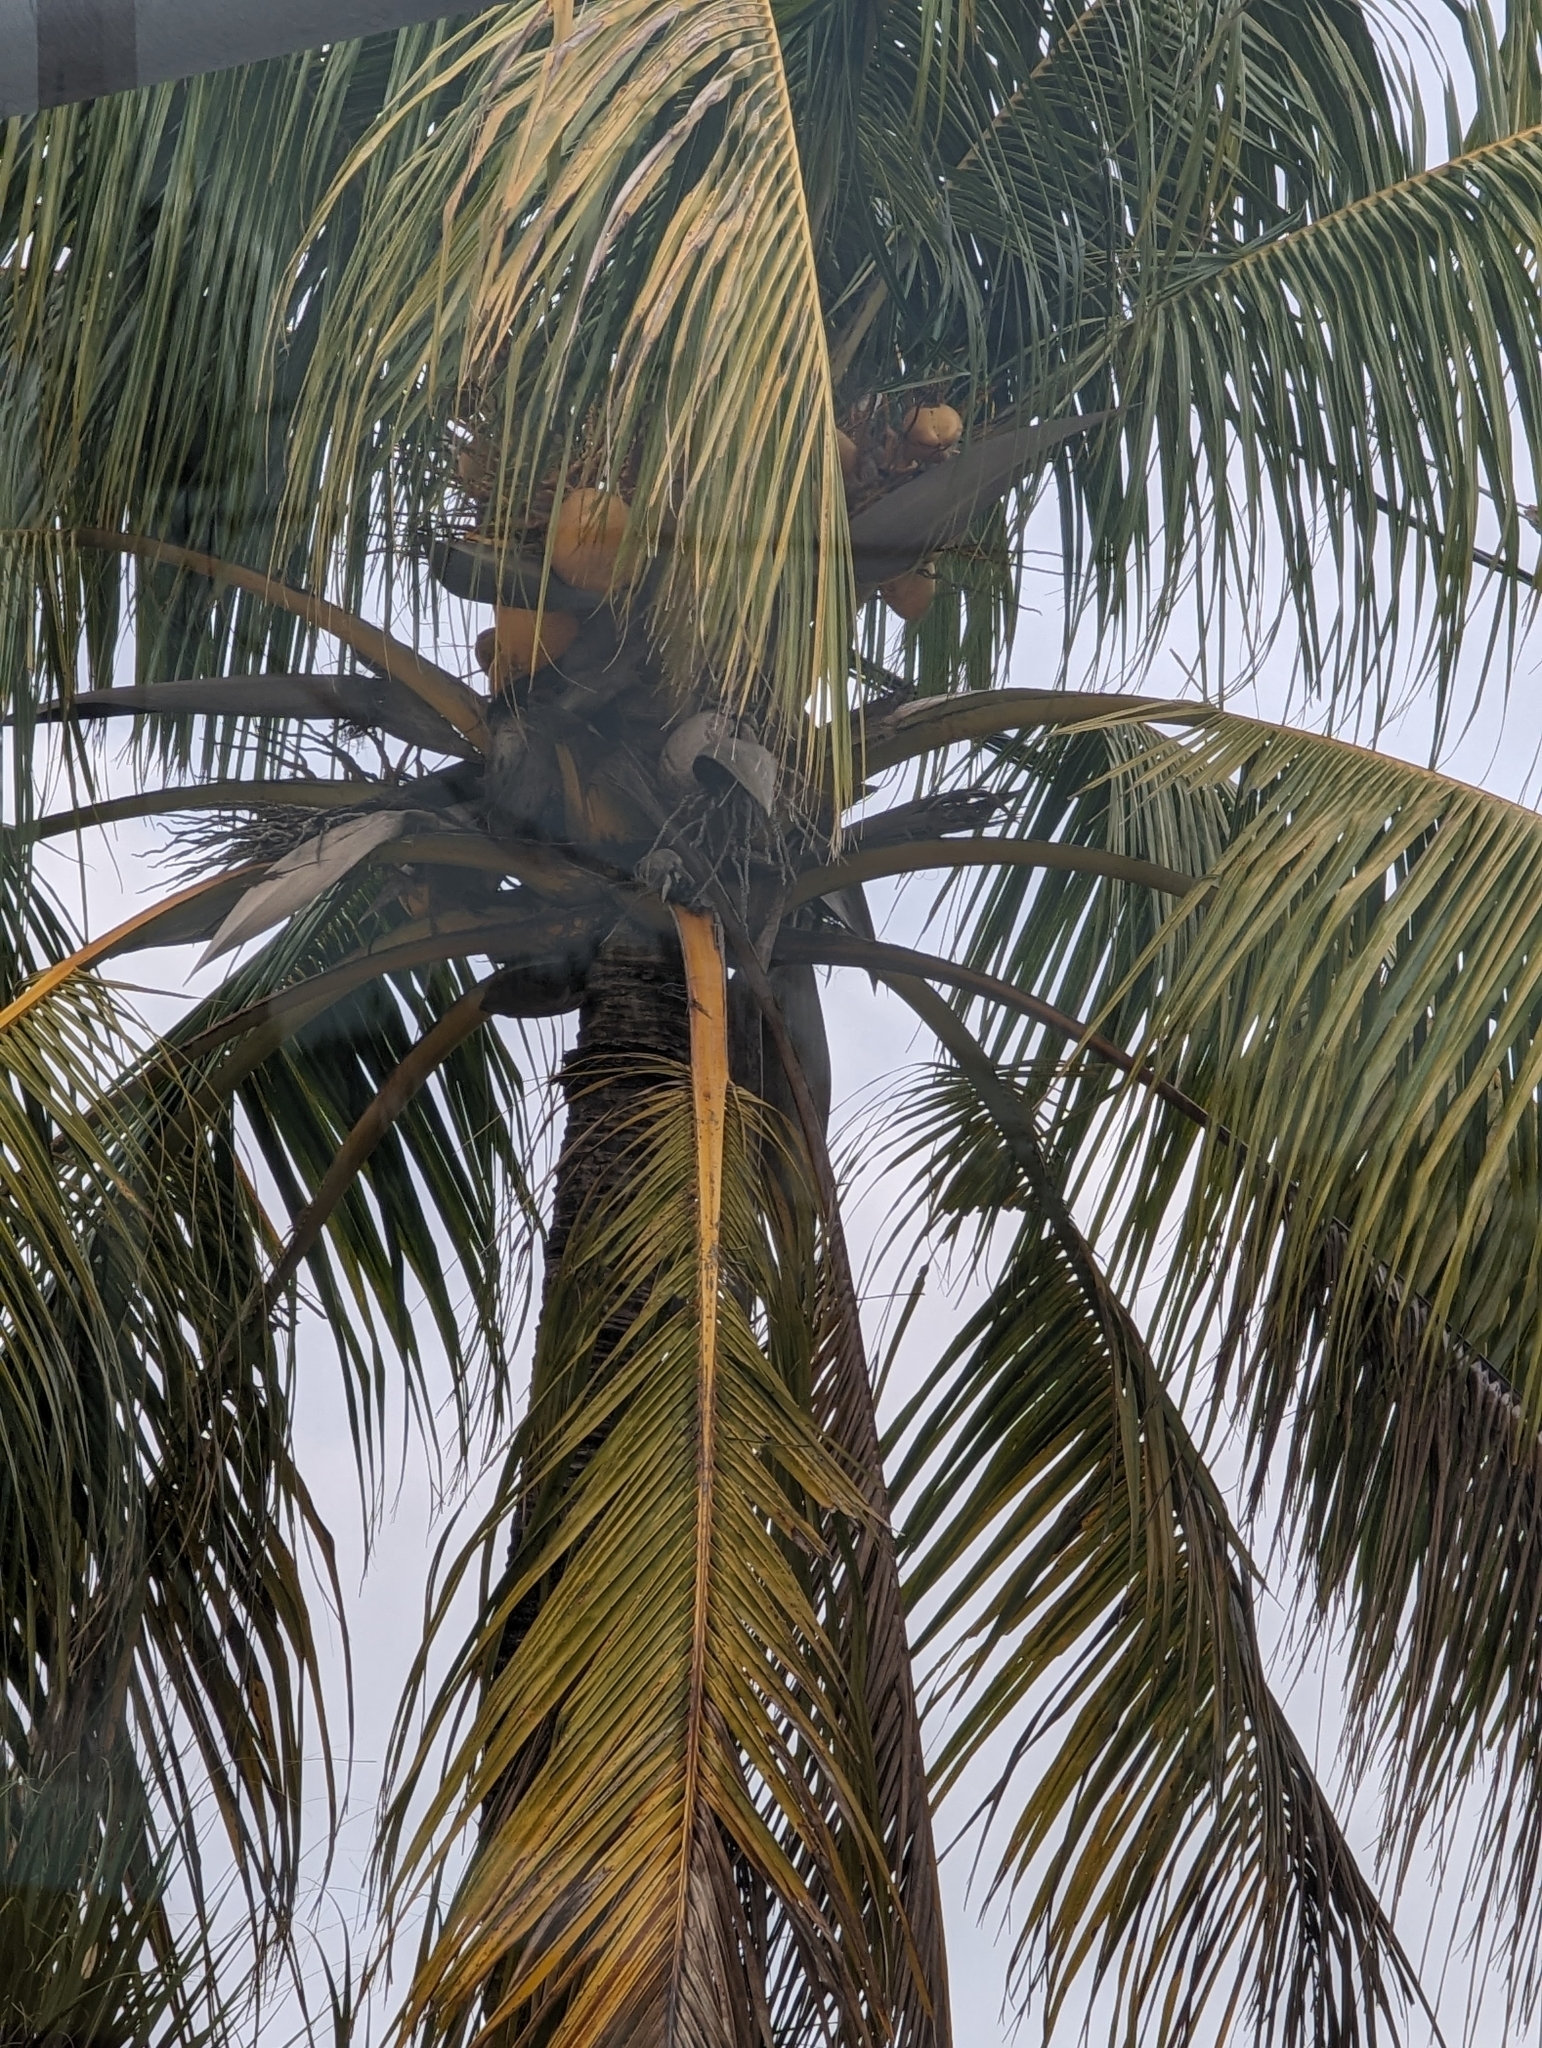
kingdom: Plantae
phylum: Tracheophyta
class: Liliopsida
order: Arecales
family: Arecaceae
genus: Cocos
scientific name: Cocos nucifera
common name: Coconut palm
